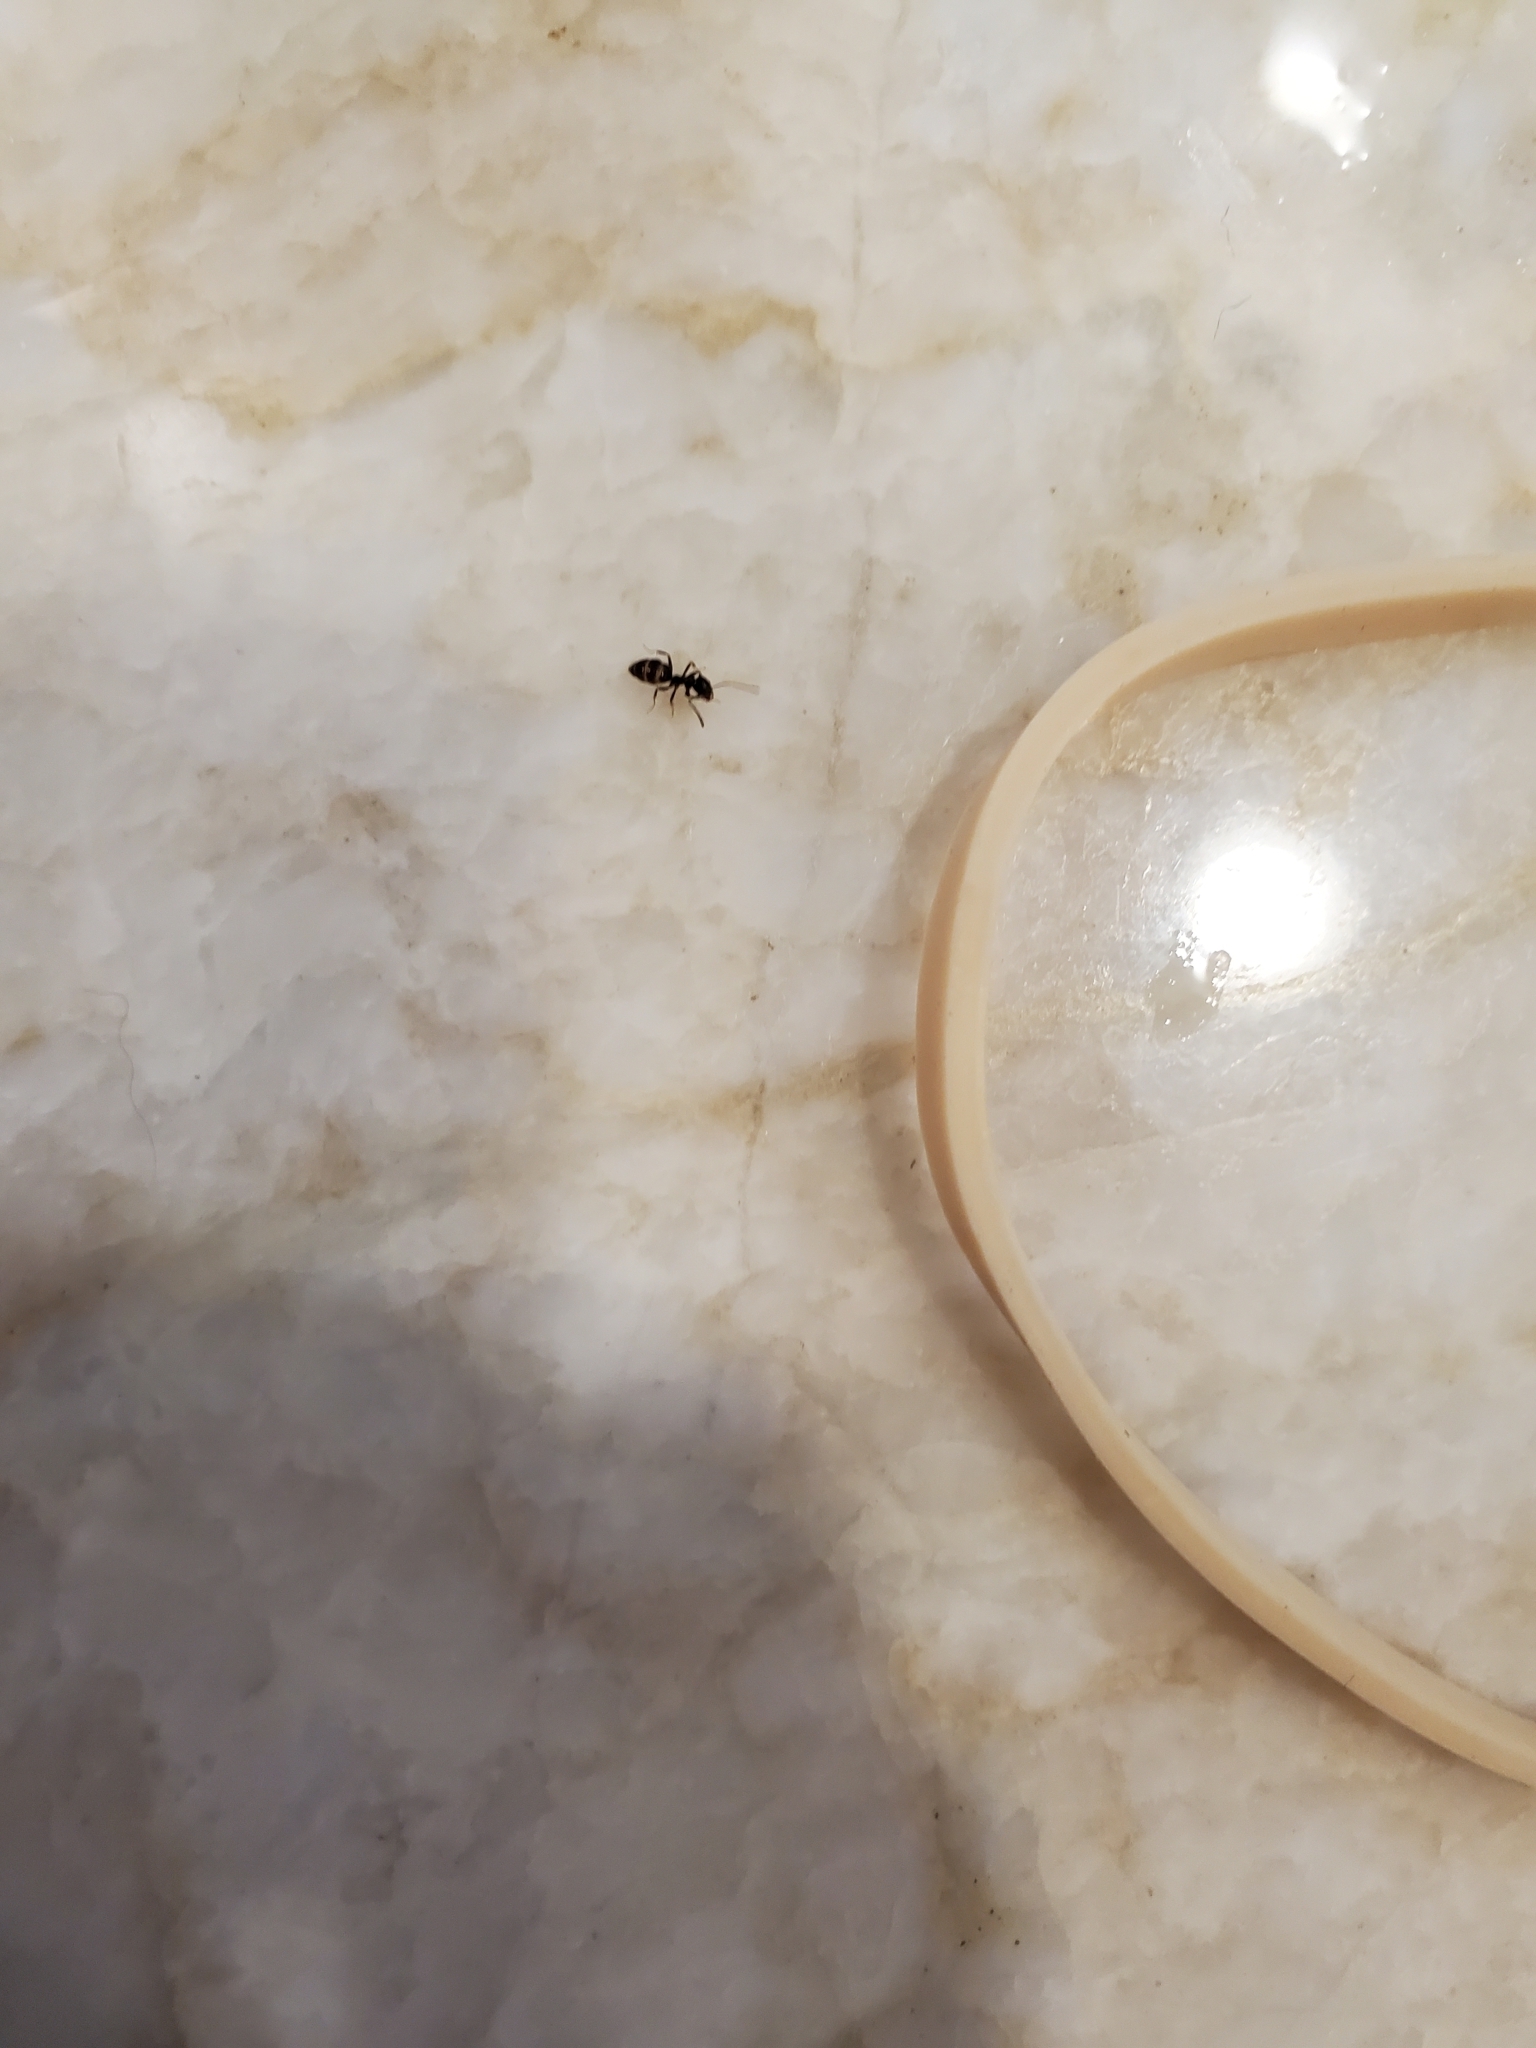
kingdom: Animalia
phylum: Arthropoda
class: Insecta
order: Hymenoptera
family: Formicidae
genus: Tapinoma
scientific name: Tapinoma sessile
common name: Odorous house ant
